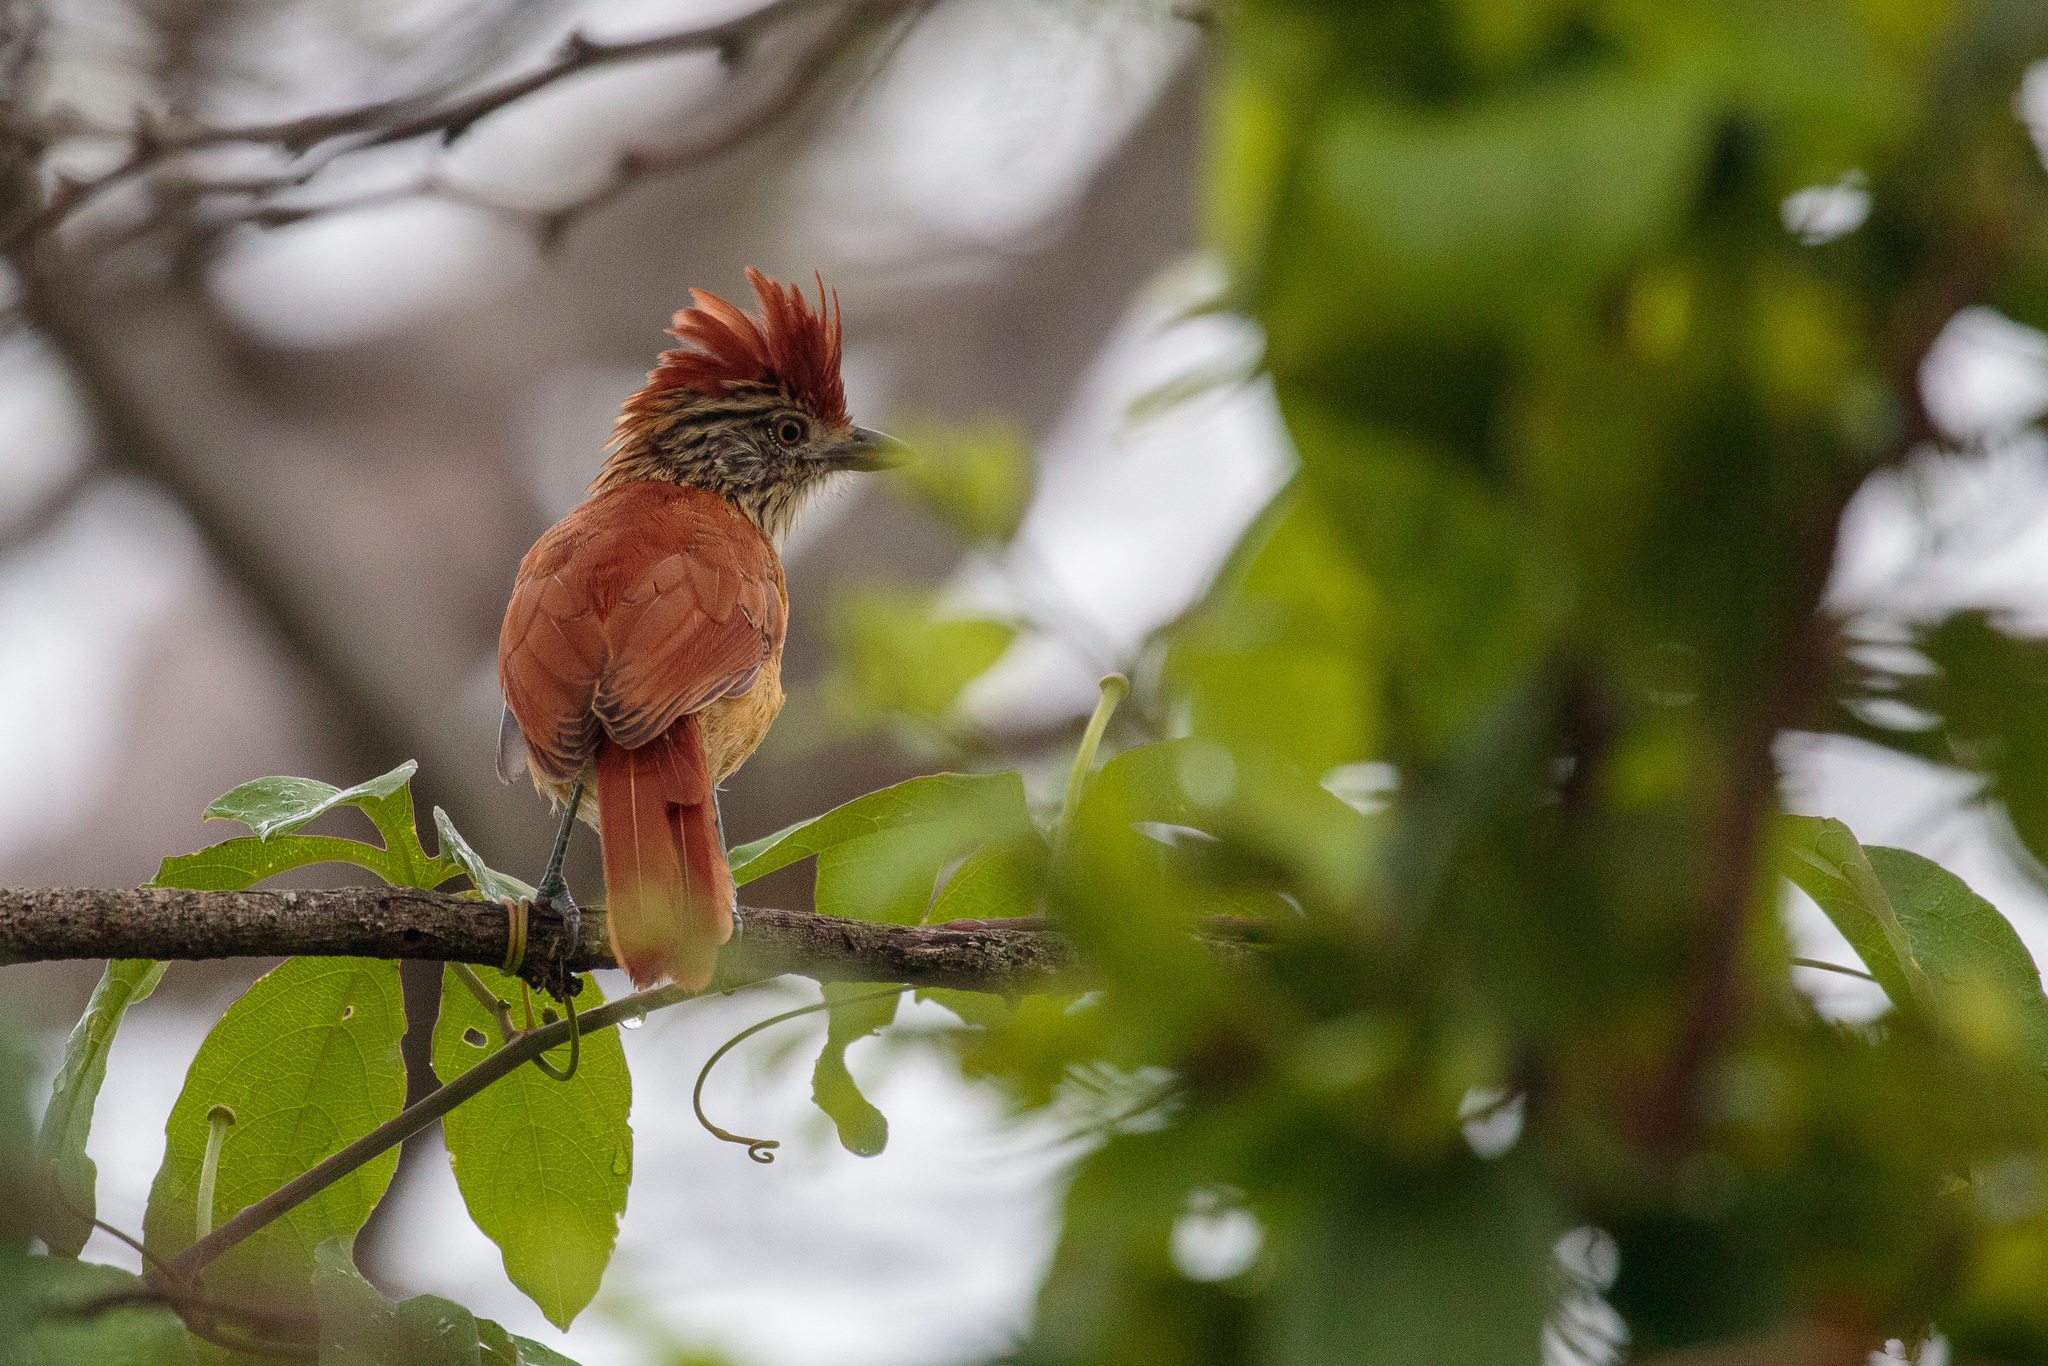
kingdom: Animalia
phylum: Chordata
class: Aves
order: Passeriformes
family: Thamnophilidae
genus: Thamnophilus
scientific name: Thamnophilus doliatus
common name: Barred antshrike
